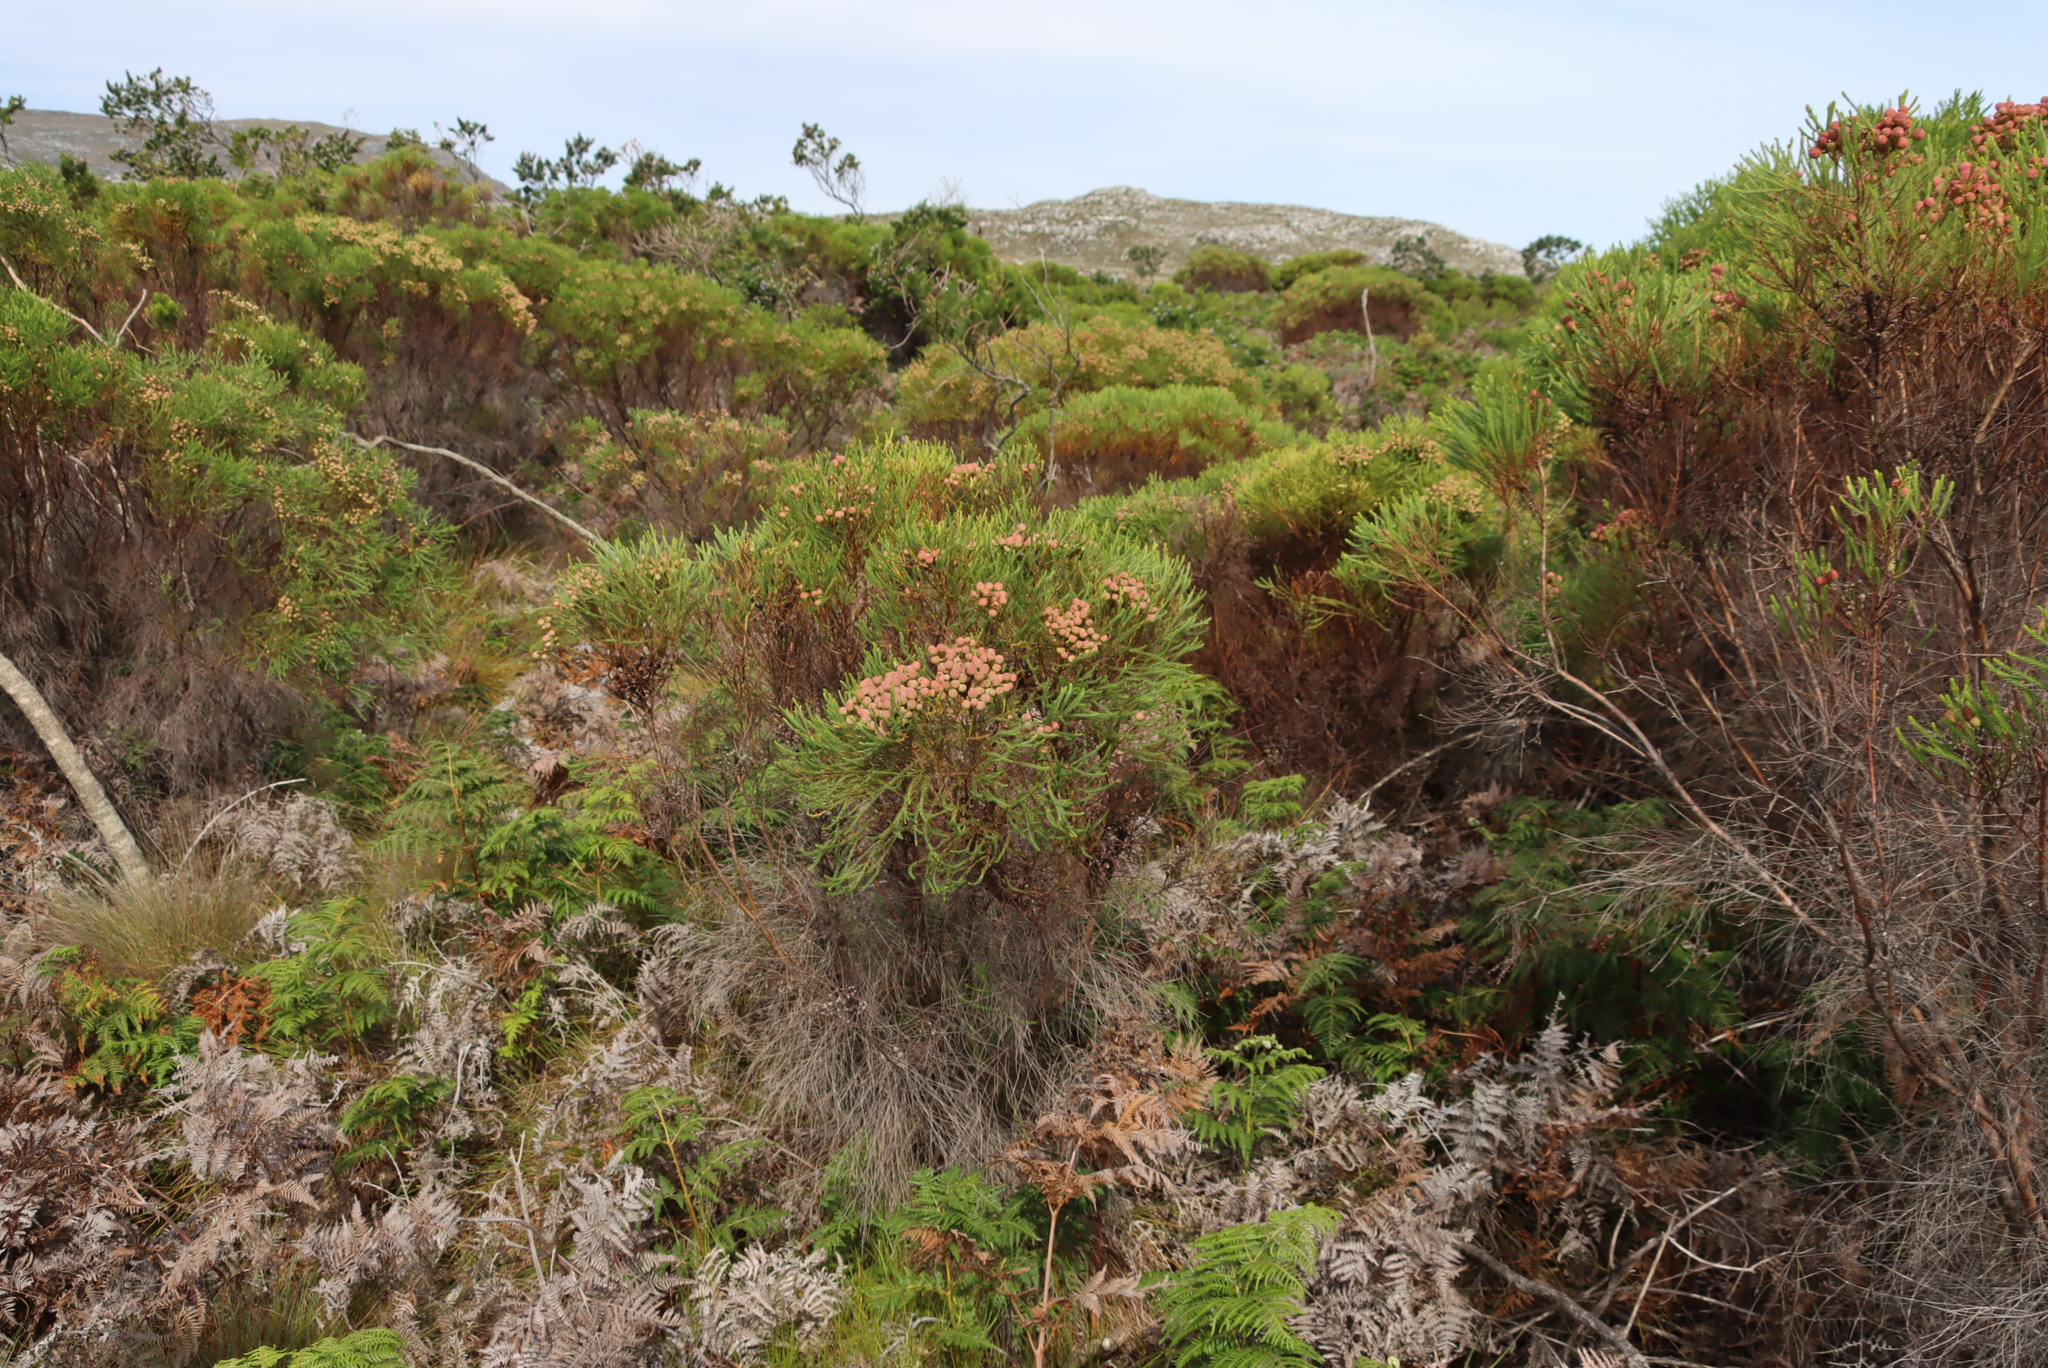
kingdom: Plantae
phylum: Tracheophyta
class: Magnoliopsida
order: Bruniales
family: Bruniaceae
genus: Berzelia
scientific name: Berzelia lanuginosa
